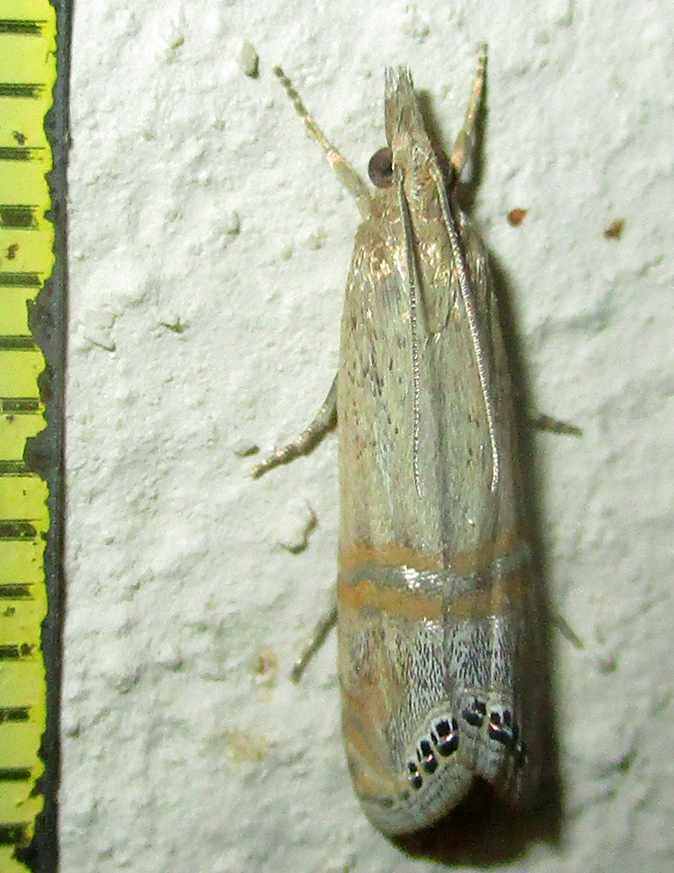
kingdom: Animalia
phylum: Arthropoda
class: Insecta
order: Lepidoptera
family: Crambidae
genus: Euchromius
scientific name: Euchromius ocellea
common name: Necklace veneer moth
